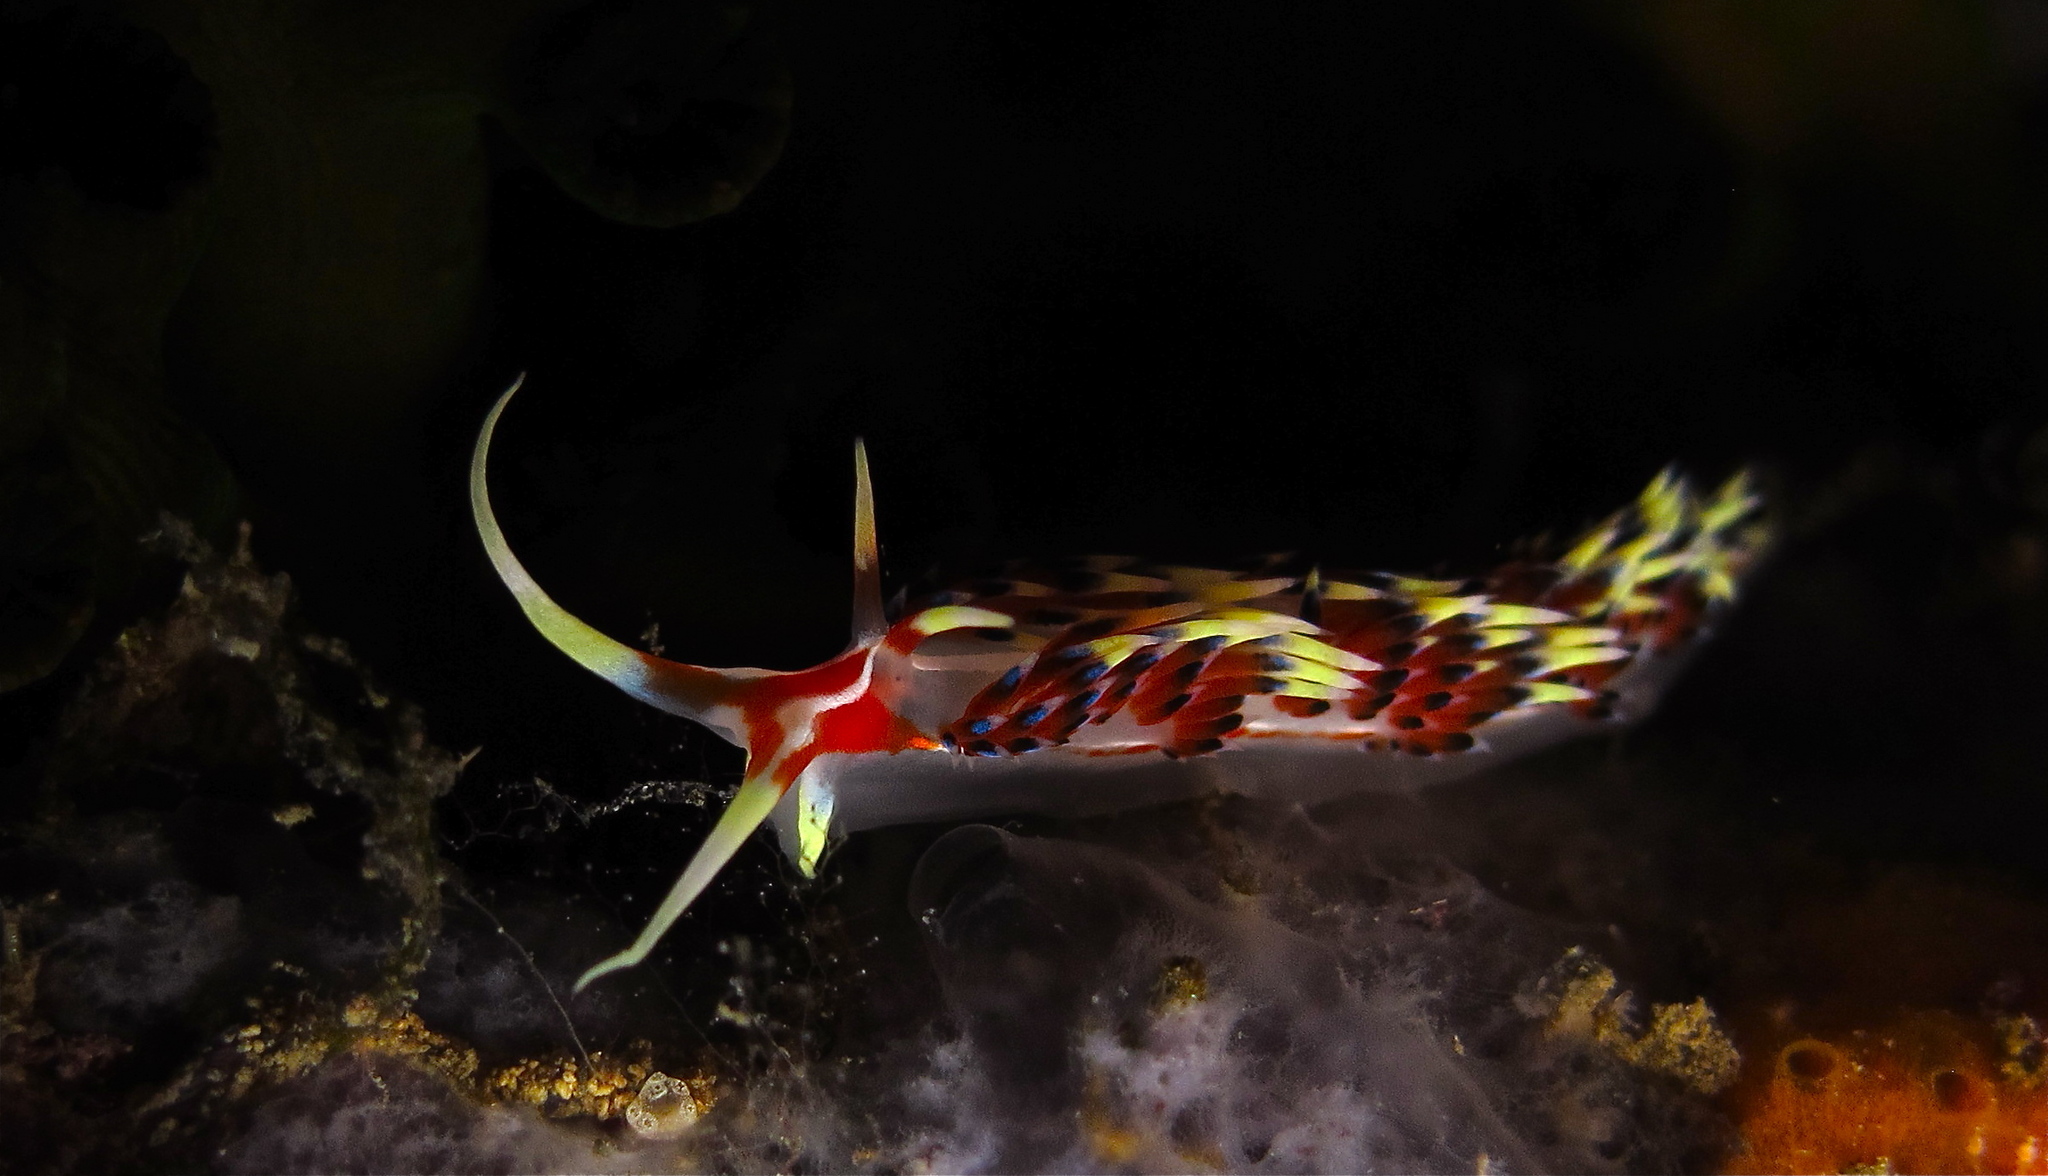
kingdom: Animalia
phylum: Mollusca
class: Gastropoda
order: Nudibranchia
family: Facelinidae
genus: Caloria
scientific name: Caloria indica
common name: Sea slug
